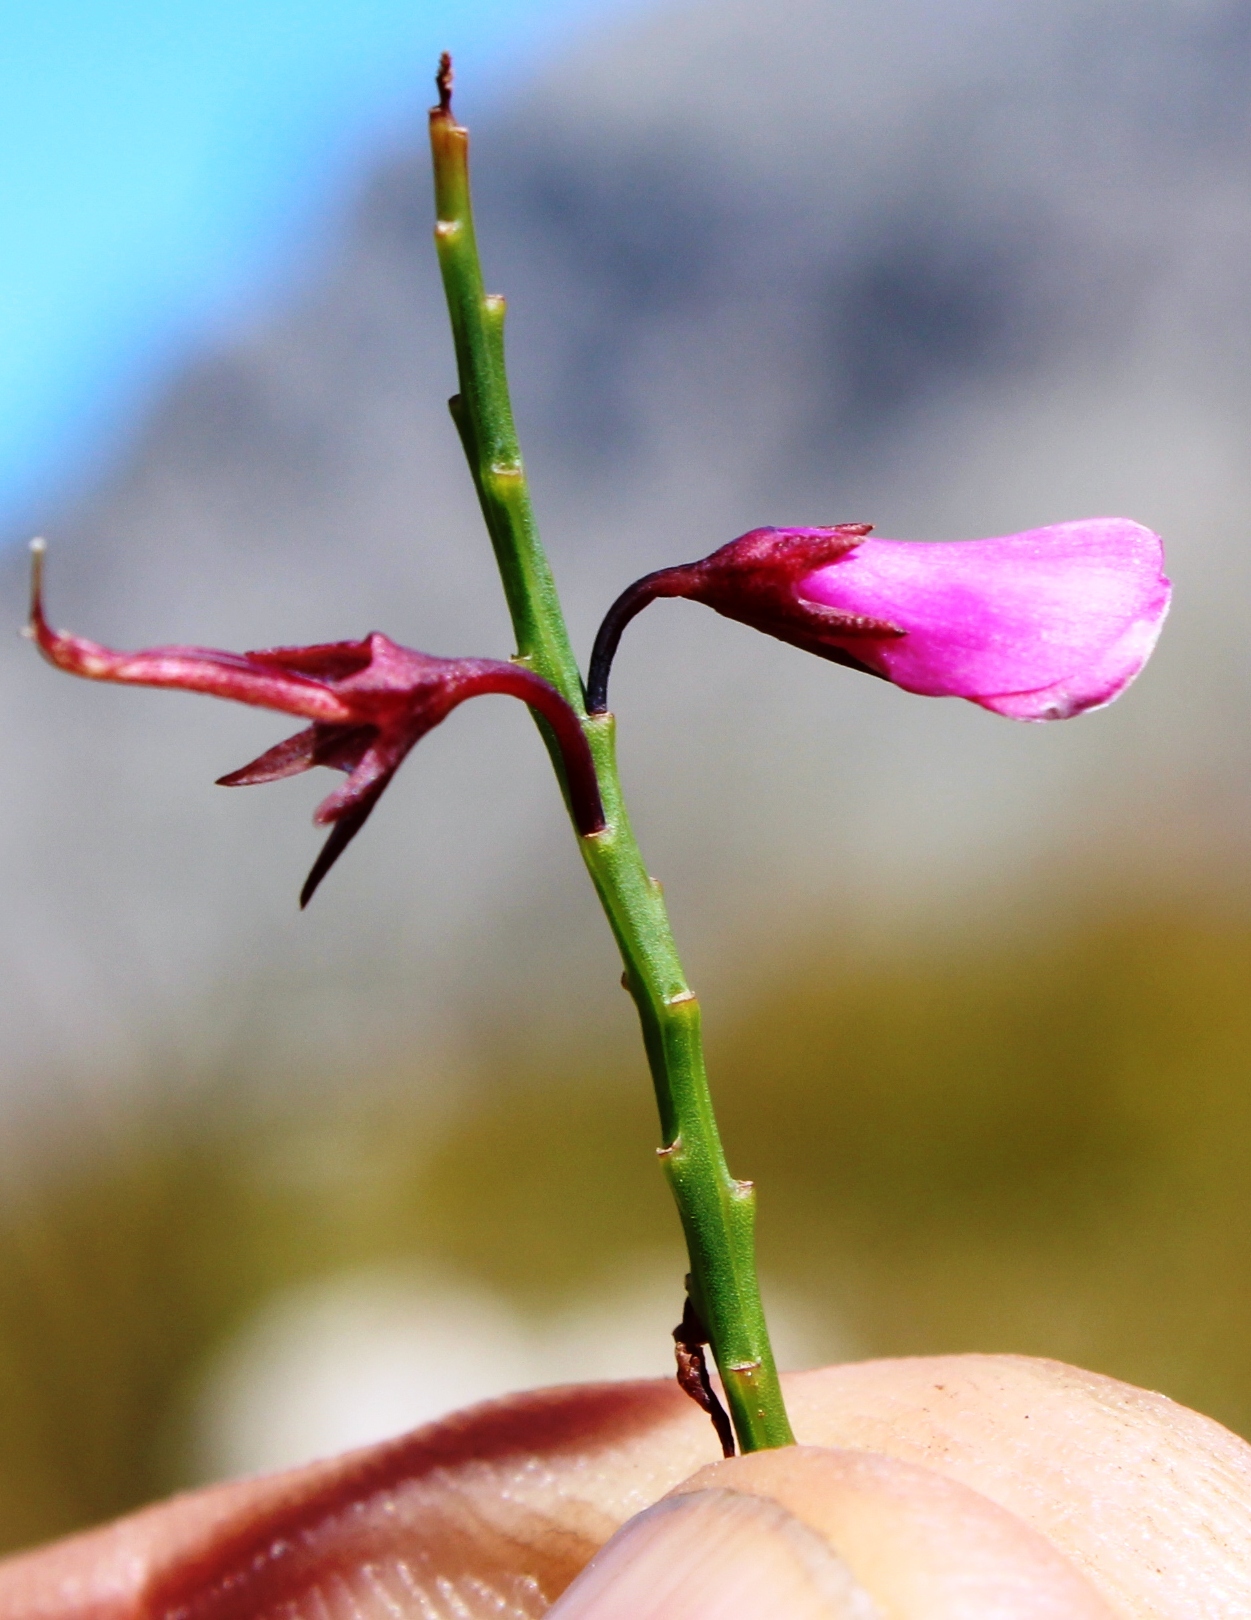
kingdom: Plantae
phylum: Tracheophyta
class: Magnoliopsida
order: Fabales
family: Fabaceae
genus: Indigofera
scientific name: Indigofera filifolia
